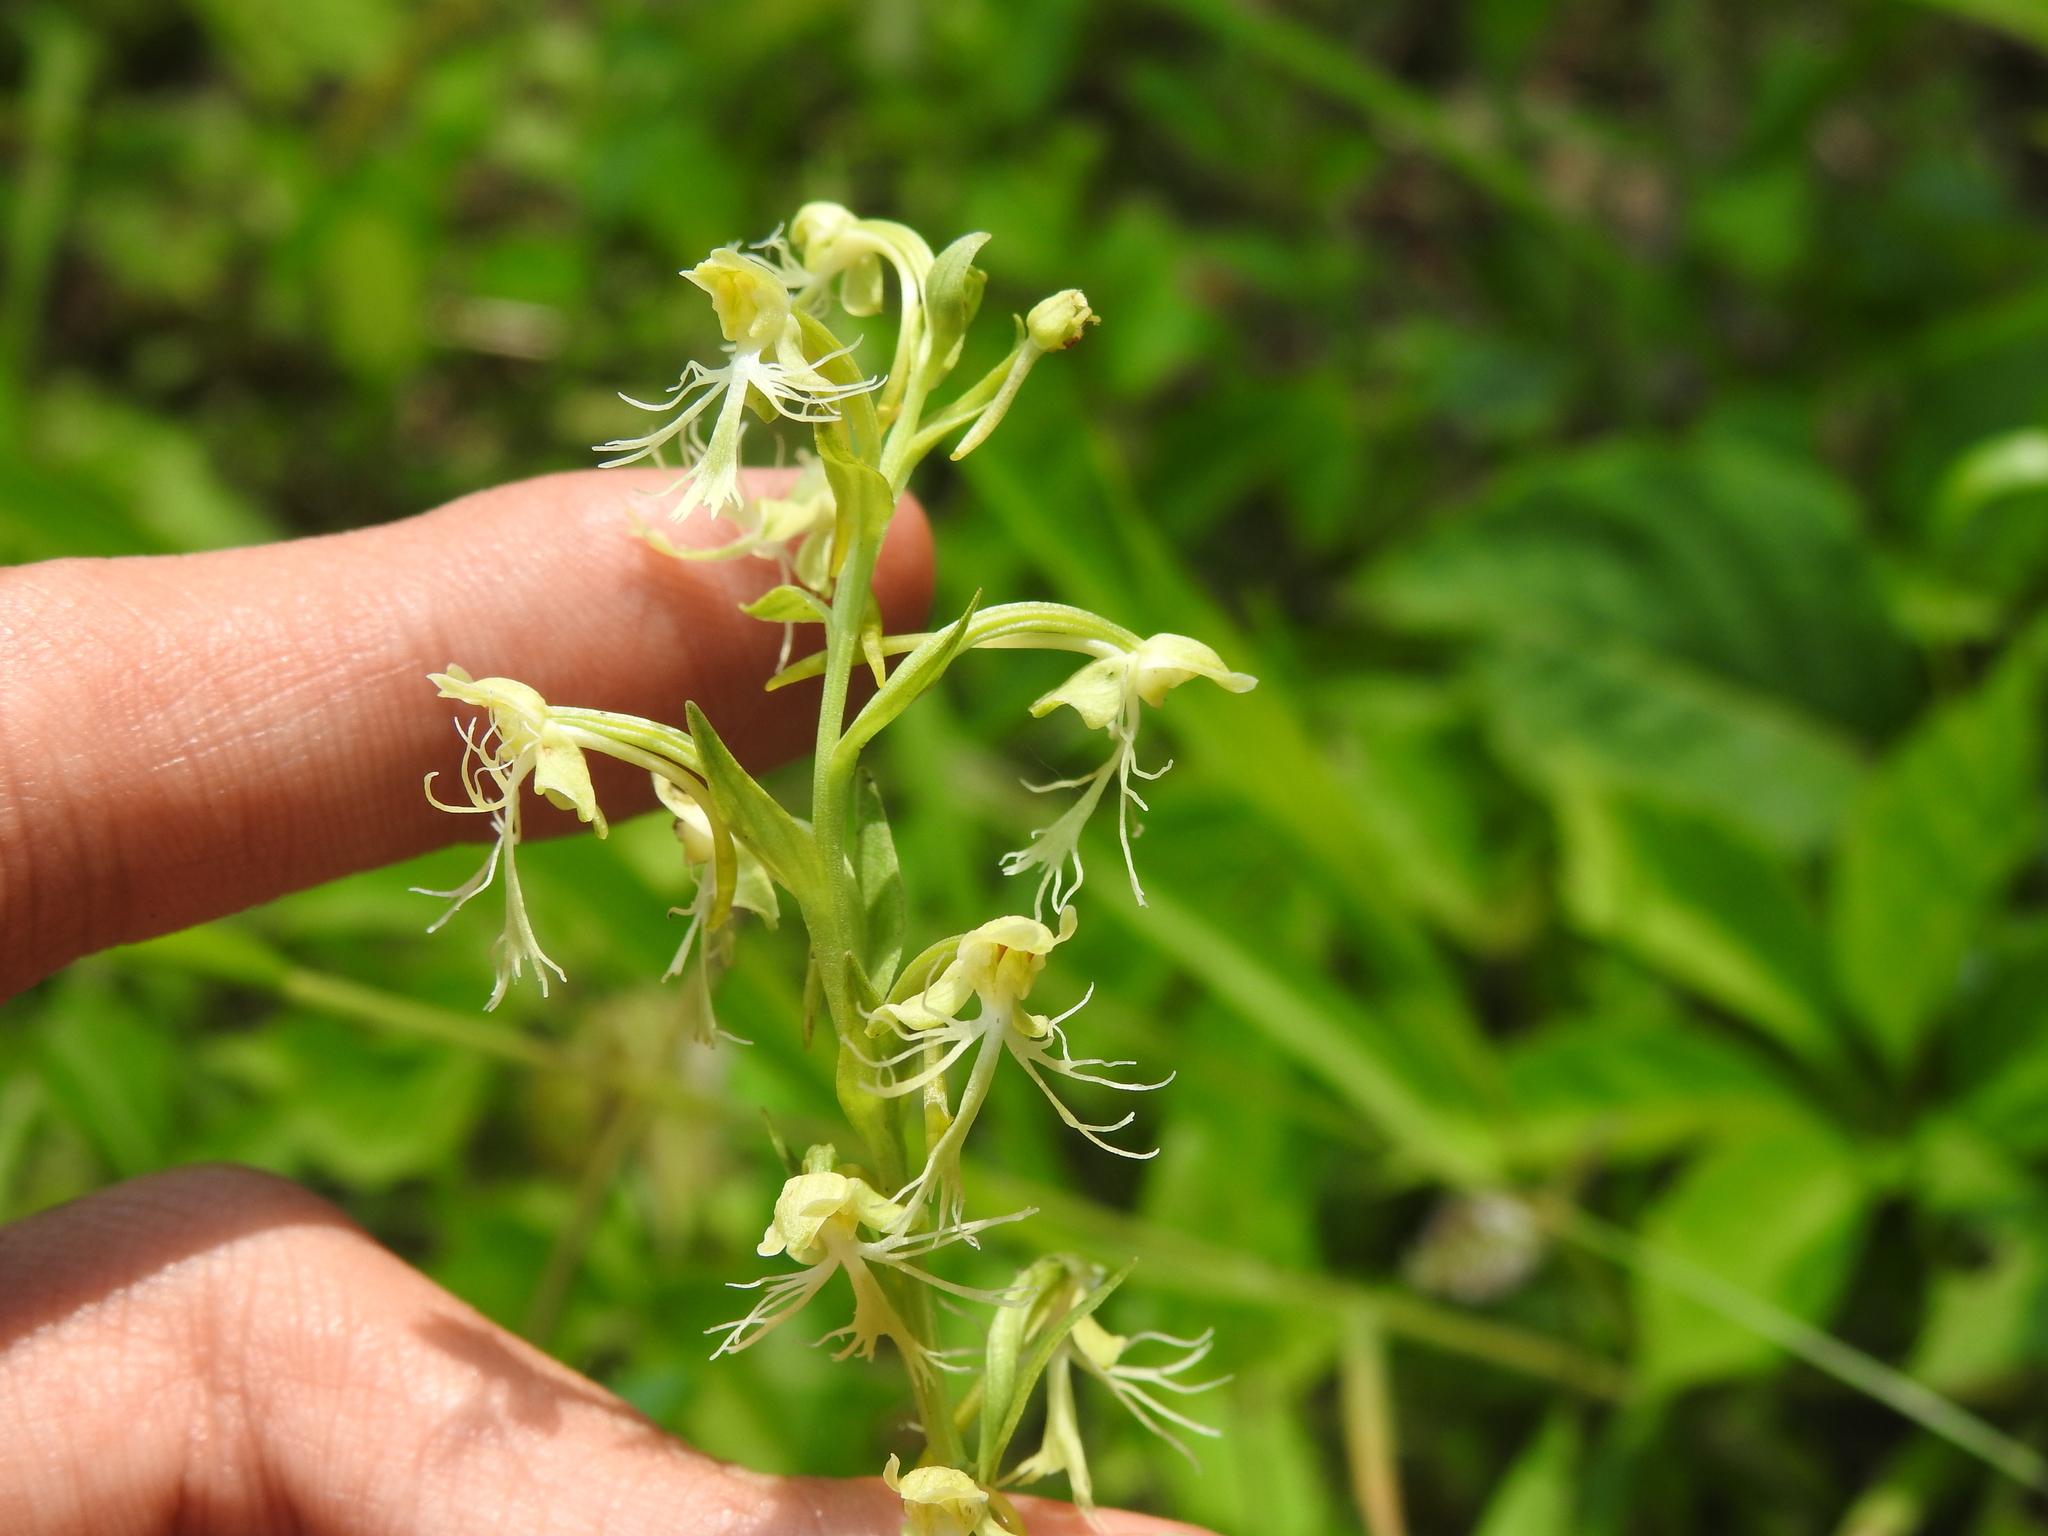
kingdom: Plantae
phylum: Tracheophyta
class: Liliopsida
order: Asparagales
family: Orchidaceae
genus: Platanthera
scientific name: Platanthera lacera
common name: Green fringed orchid
